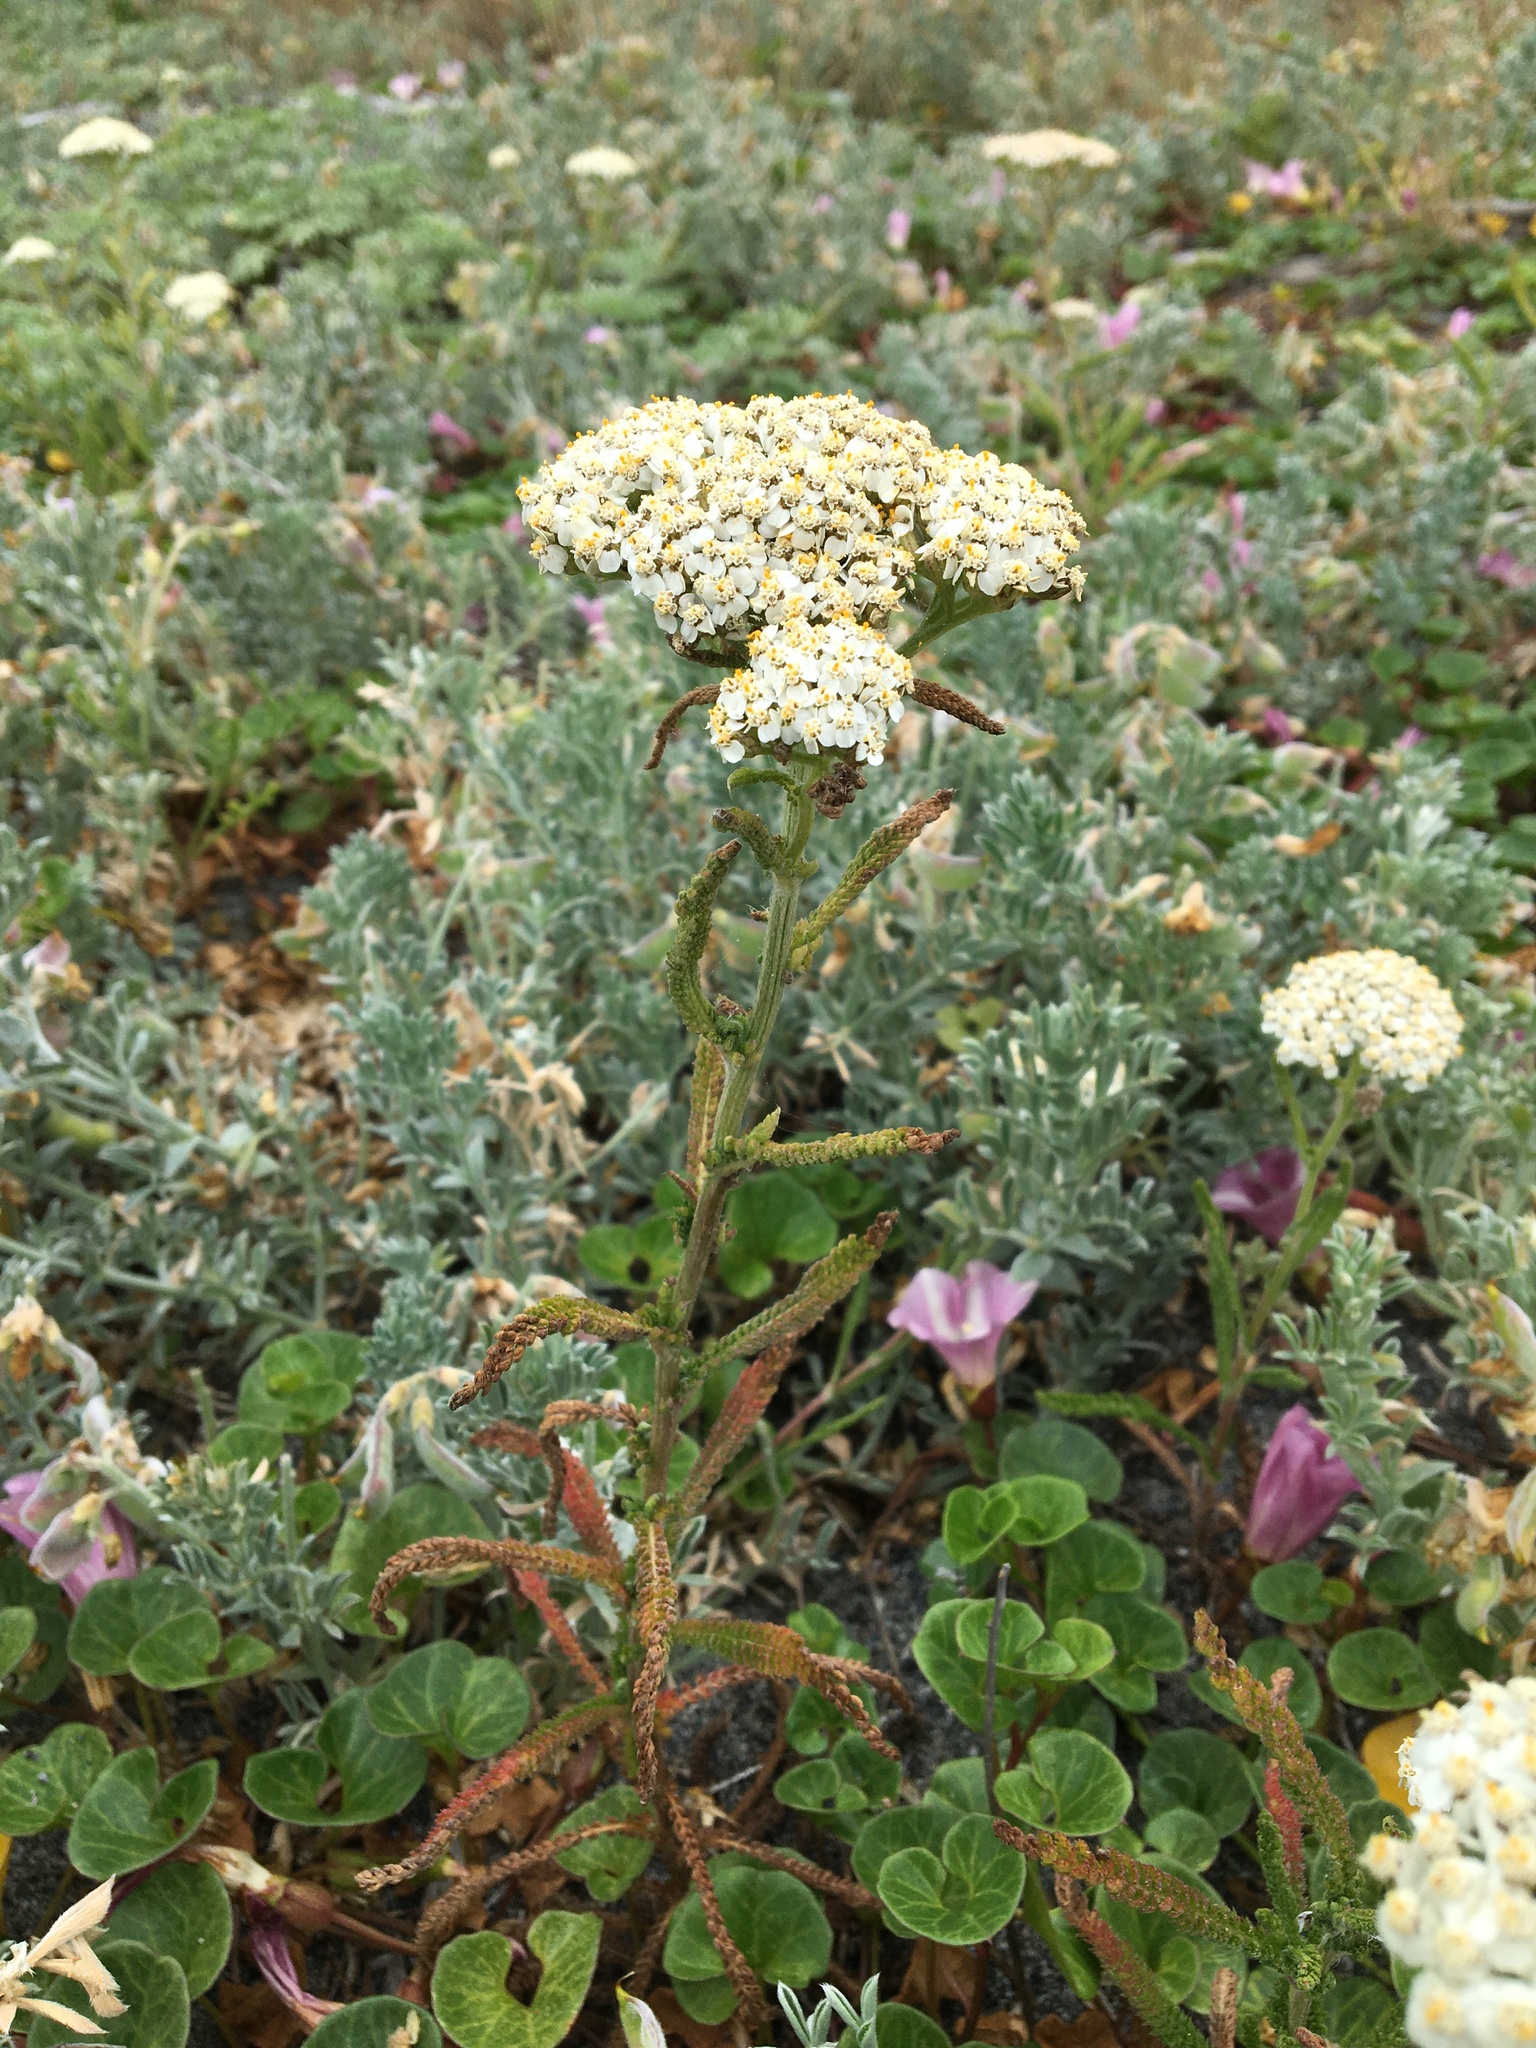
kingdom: Plantae
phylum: Tracheophyta
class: Magnoliopsida
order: Asterales
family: Asteraceae
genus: Achillea
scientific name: Achillea millefolium
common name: Yarrow
